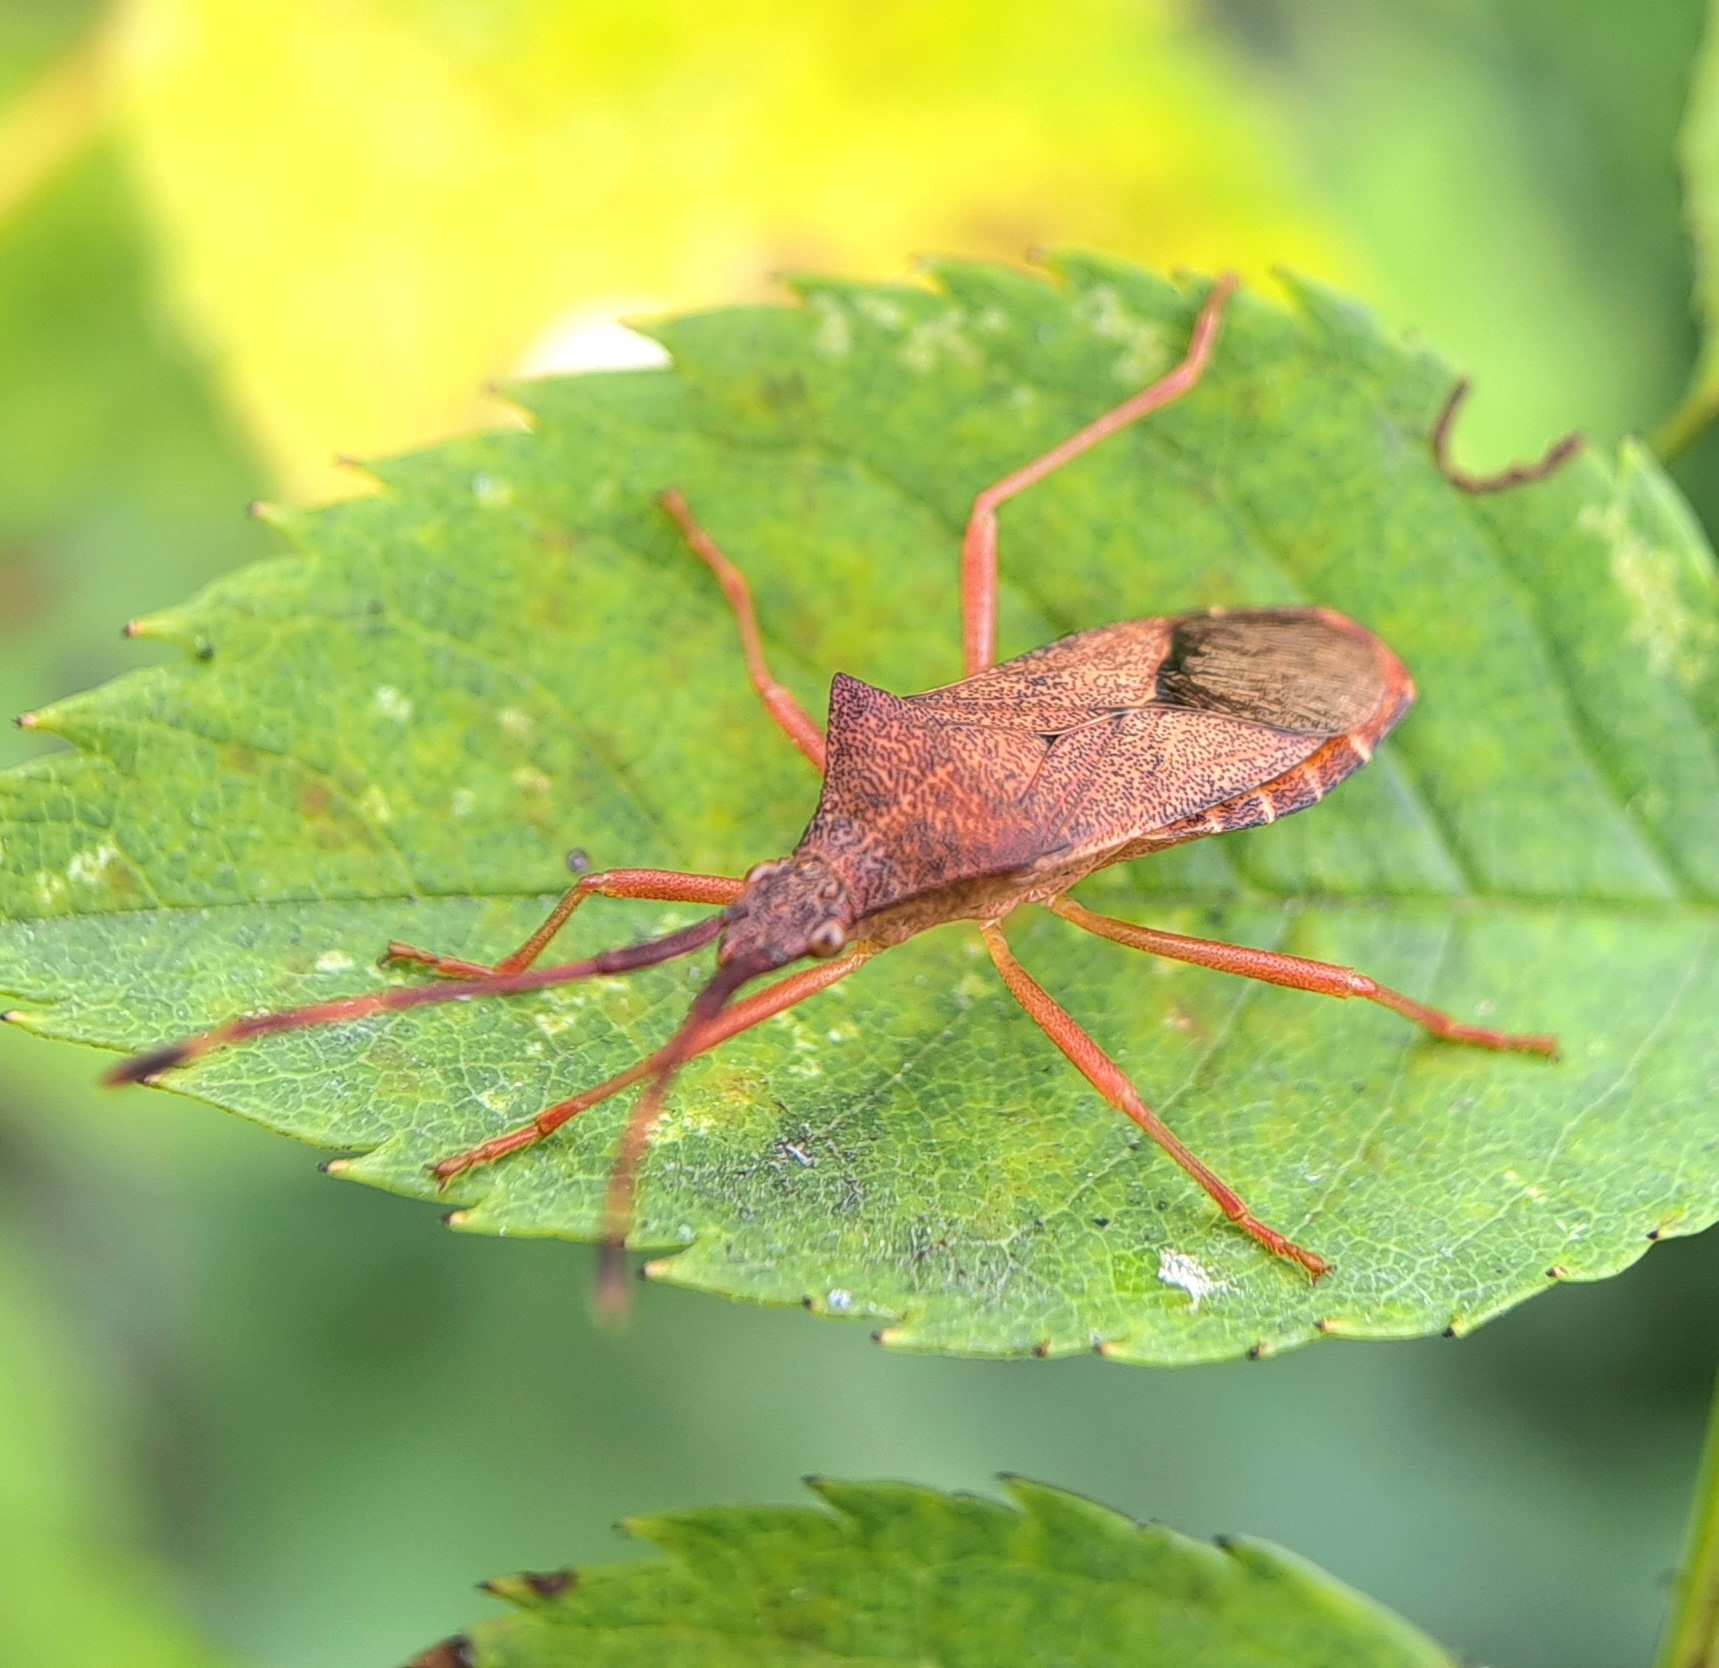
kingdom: Animalia
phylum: Arthropoda
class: Insecta
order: Hemiptera
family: Coreidae
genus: Gonocerus
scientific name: Gonocerus acuteangulatus
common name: Box bug
